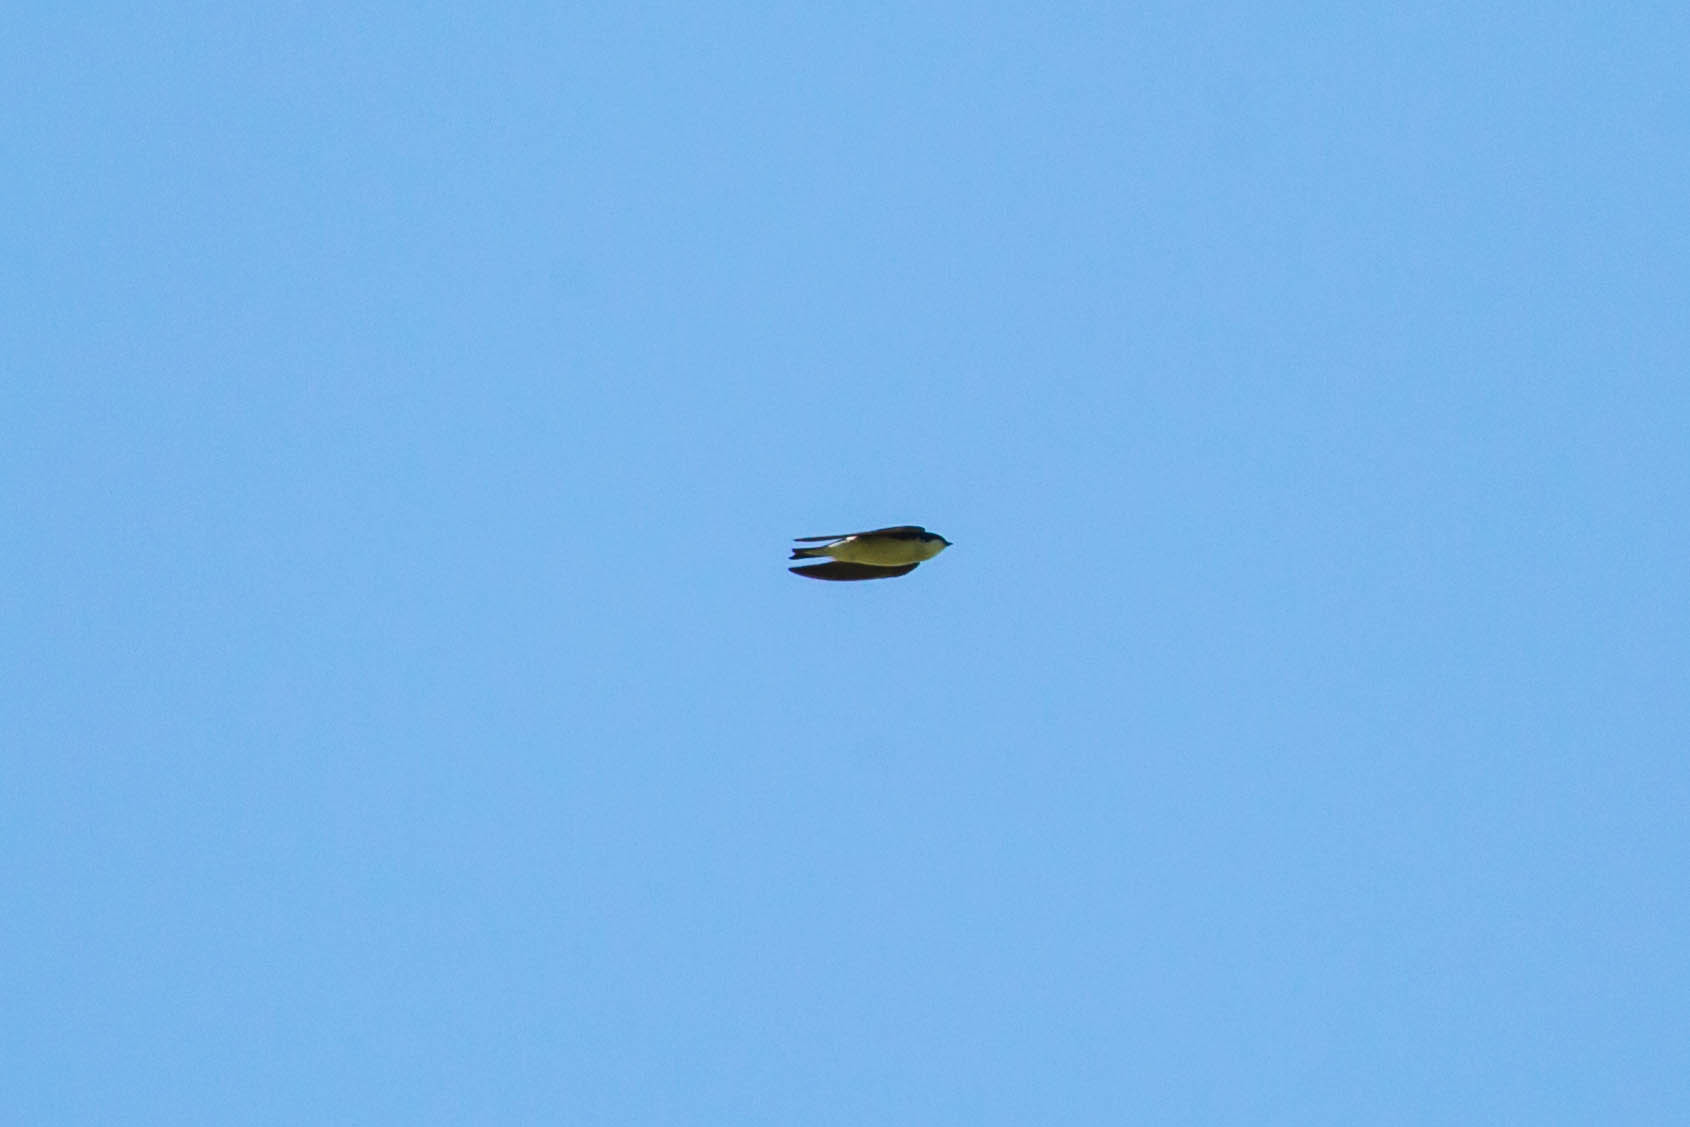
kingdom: Animalia
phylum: Chordata
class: Aves
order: Passeriformes
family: Hirundinidae
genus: Tachycineta
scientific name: Tachycineta bicolor
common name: Tree swallow
